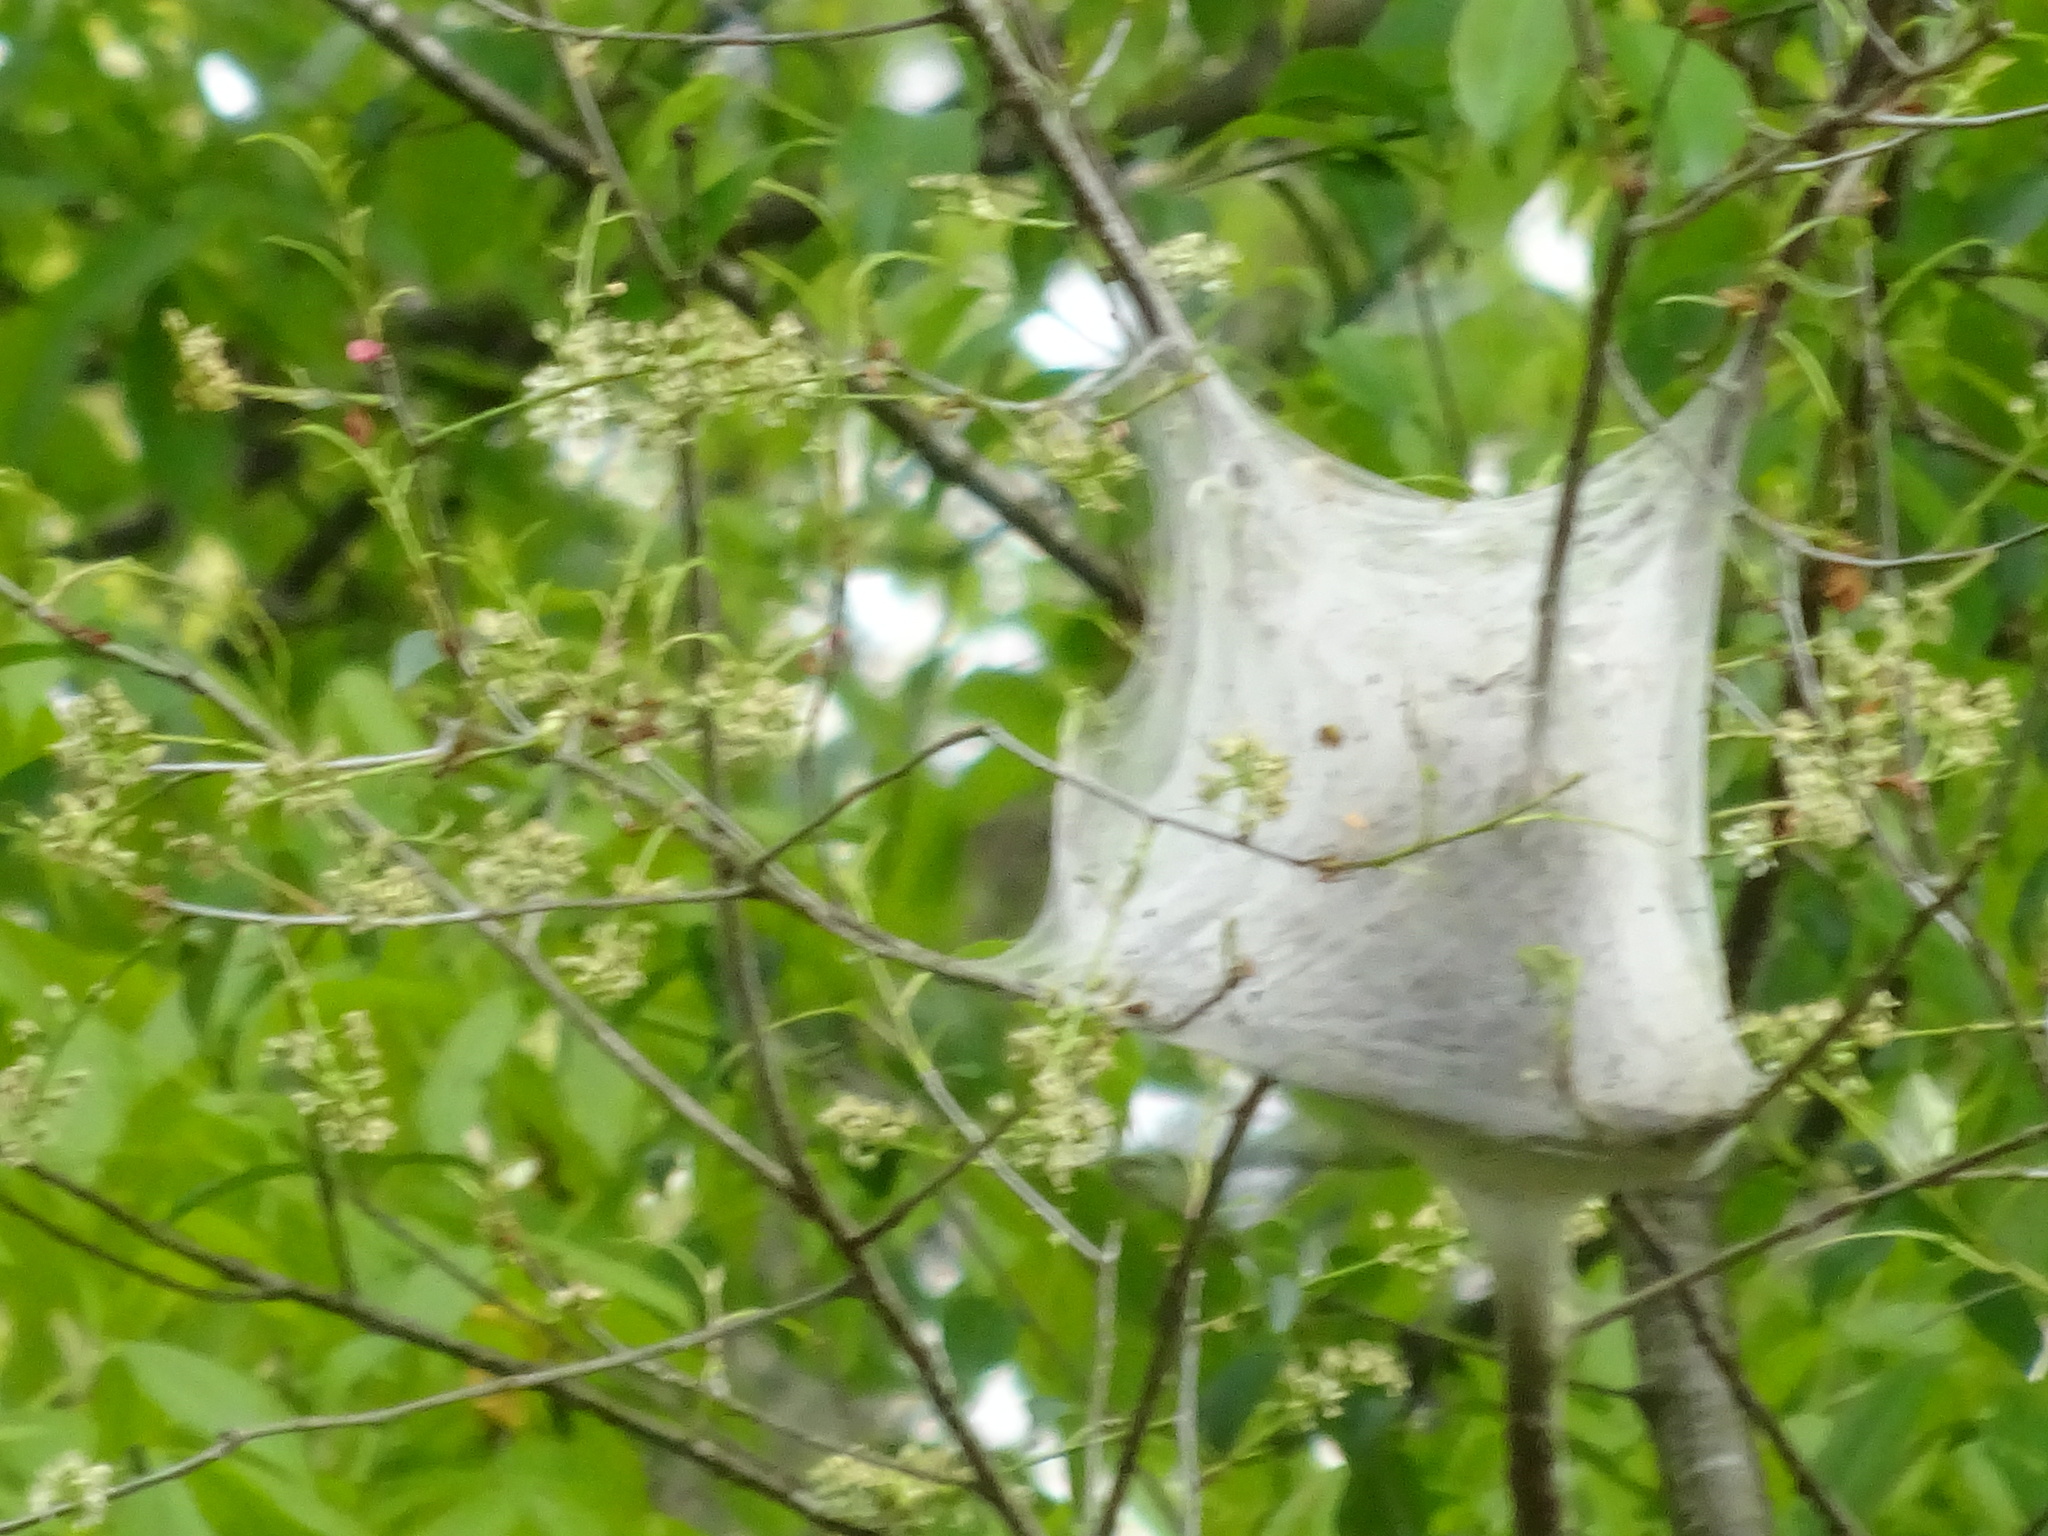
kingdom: Animalia
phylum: Arthropoda
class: Insecta
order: Lepidoptera
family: Lasiocampidae
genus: Malacosoma
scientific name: Malacosoma americana
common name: Eastern tent caterpillar moth
